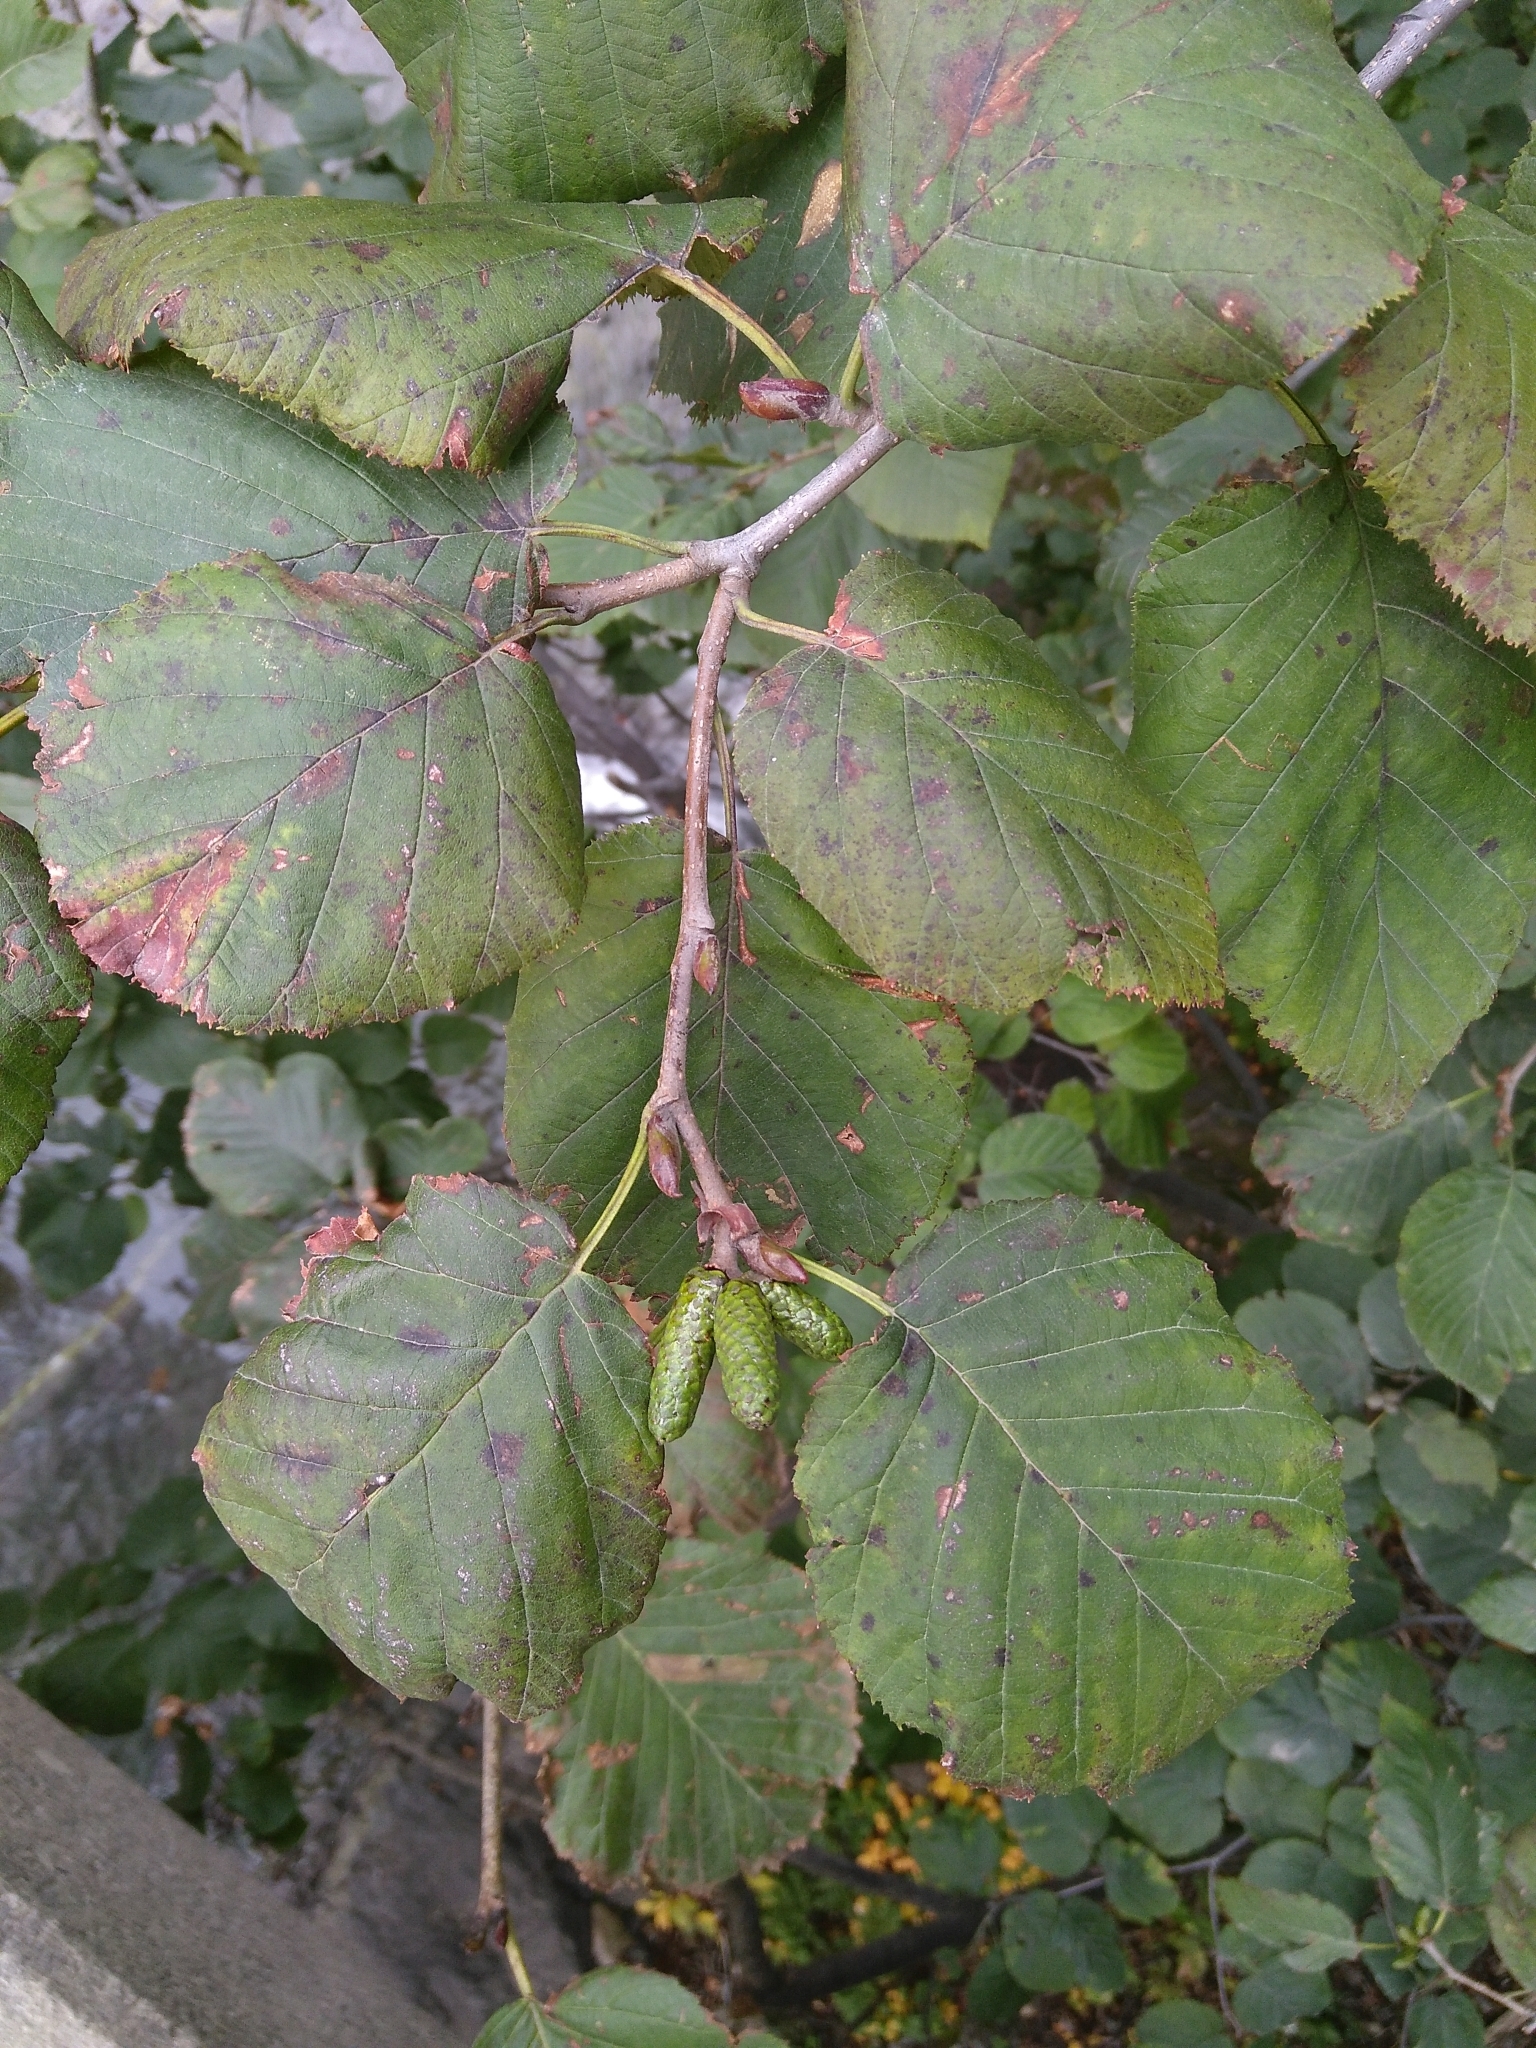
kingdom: Plantae
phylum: Tracheophyta
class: Magnoliopsida
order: Fagales
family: Betulaceae
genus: Alnus
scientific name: Alnus maximowiczii
